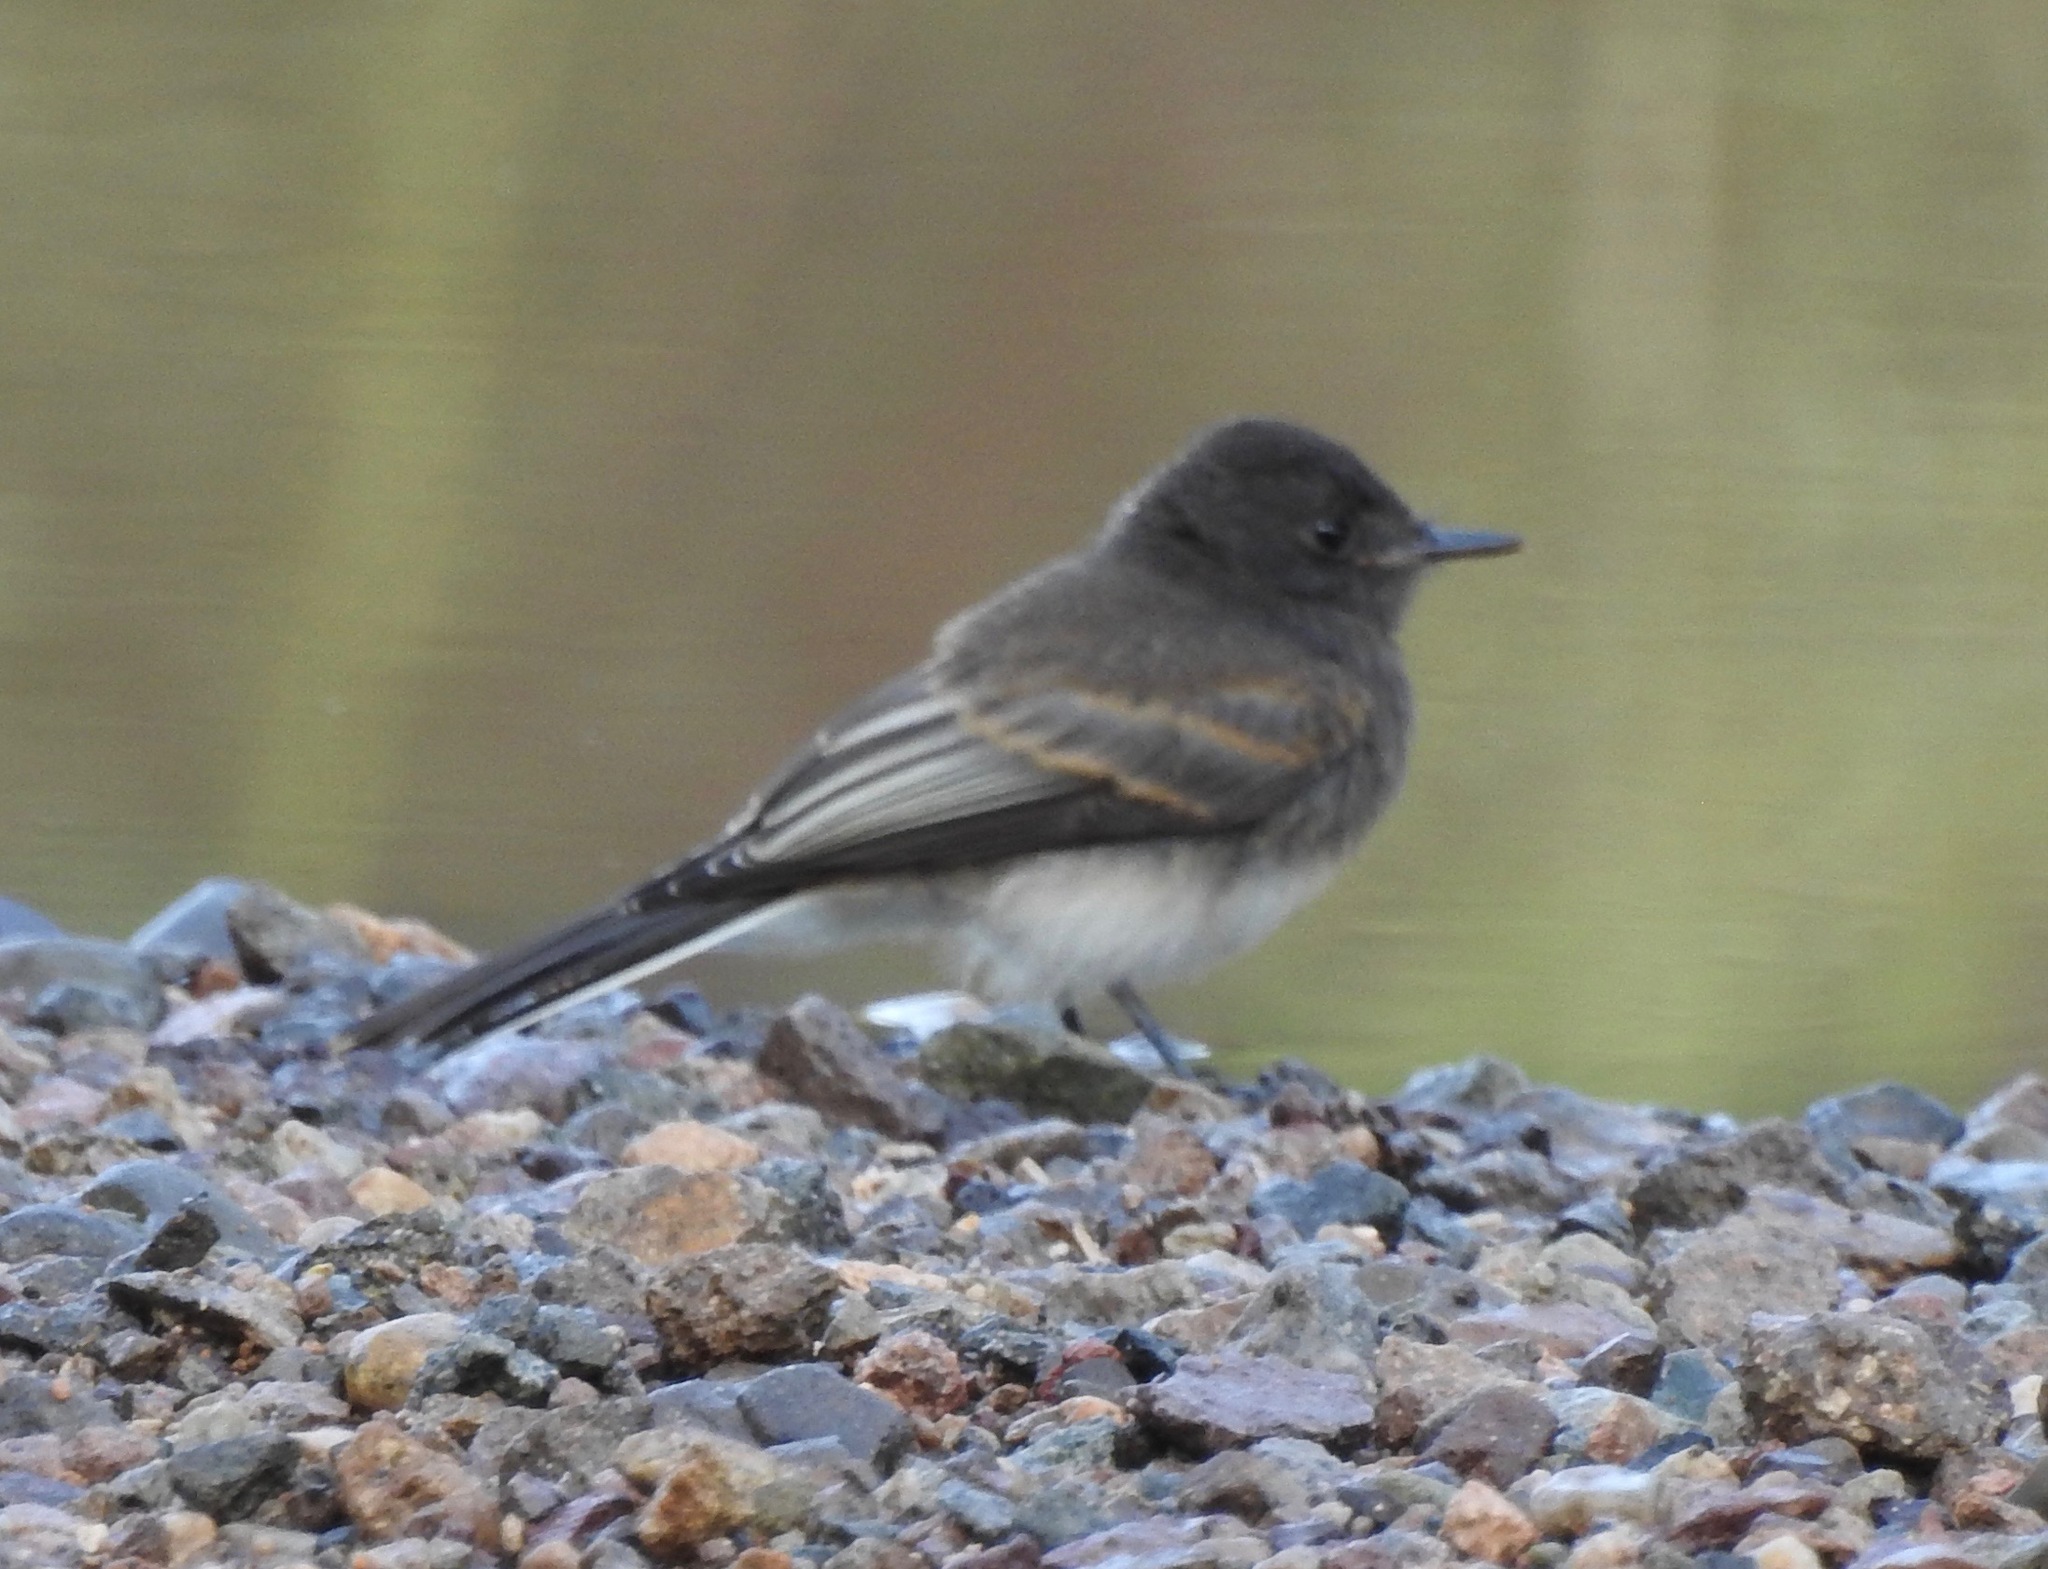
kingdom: Animalia
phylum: Chordata
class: Aves
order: Passeriformes
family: Tyrannidae
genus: Sayornis
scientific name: Sayornis nigricans
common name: Black phoebe
